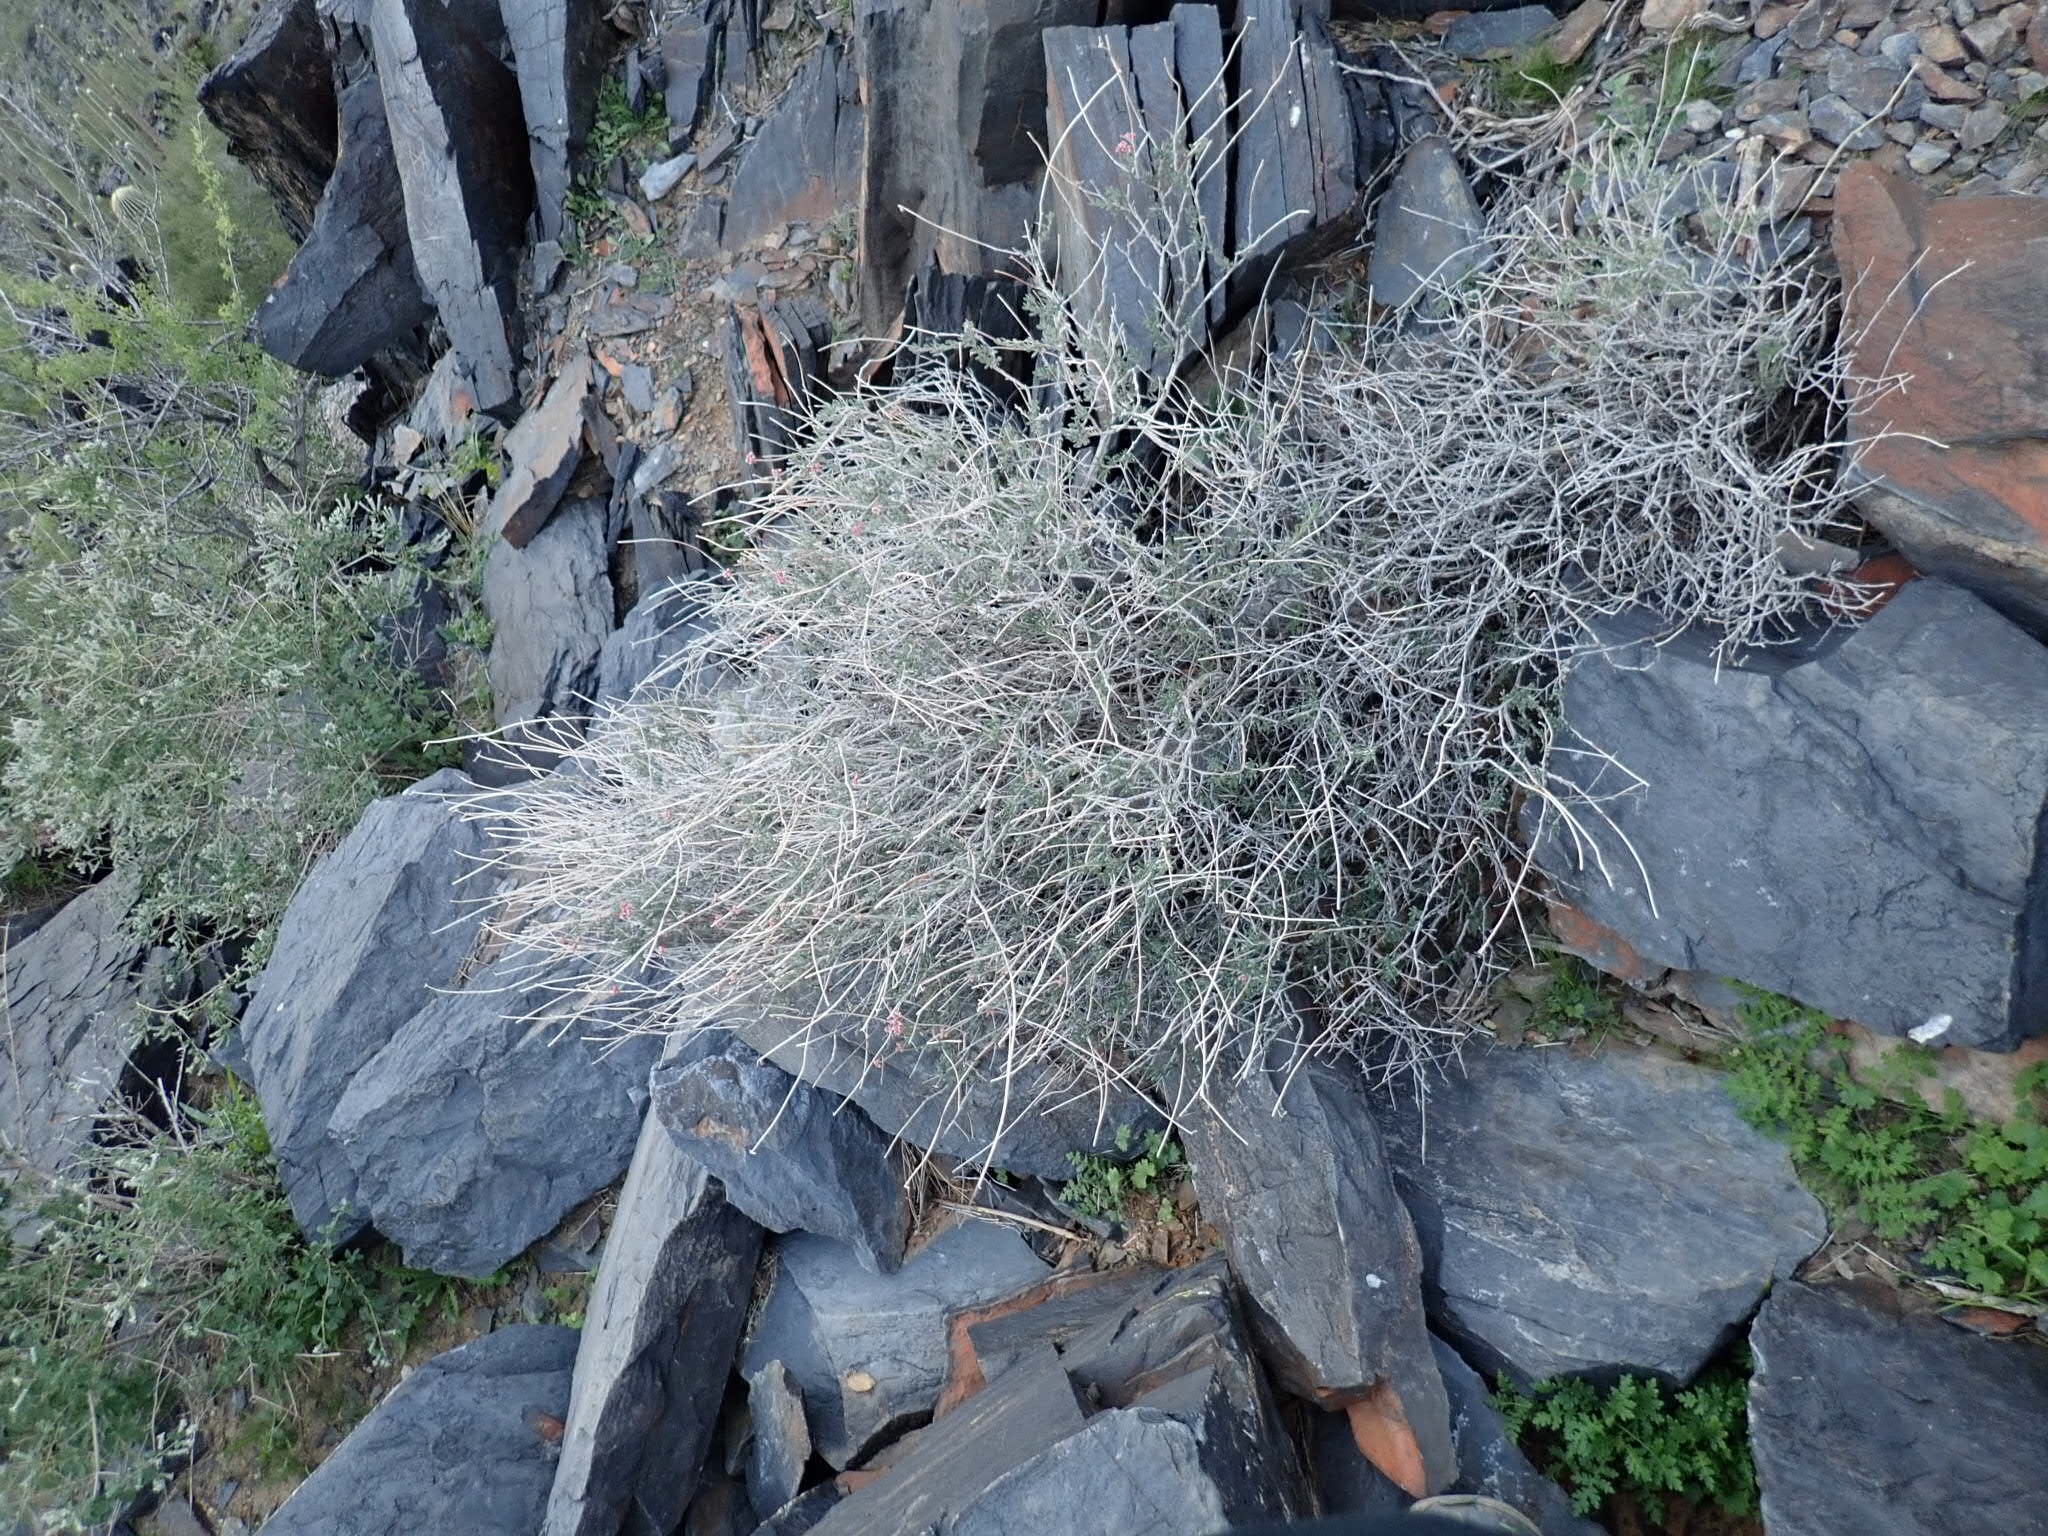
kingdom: Plantae
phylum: Tracheophyta
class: Magnoliopsida
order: Caryophyllales
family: Polygonaceae
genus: Eriogonum
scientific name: Eriogonum fasciculatum
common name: California wild buckwheat
